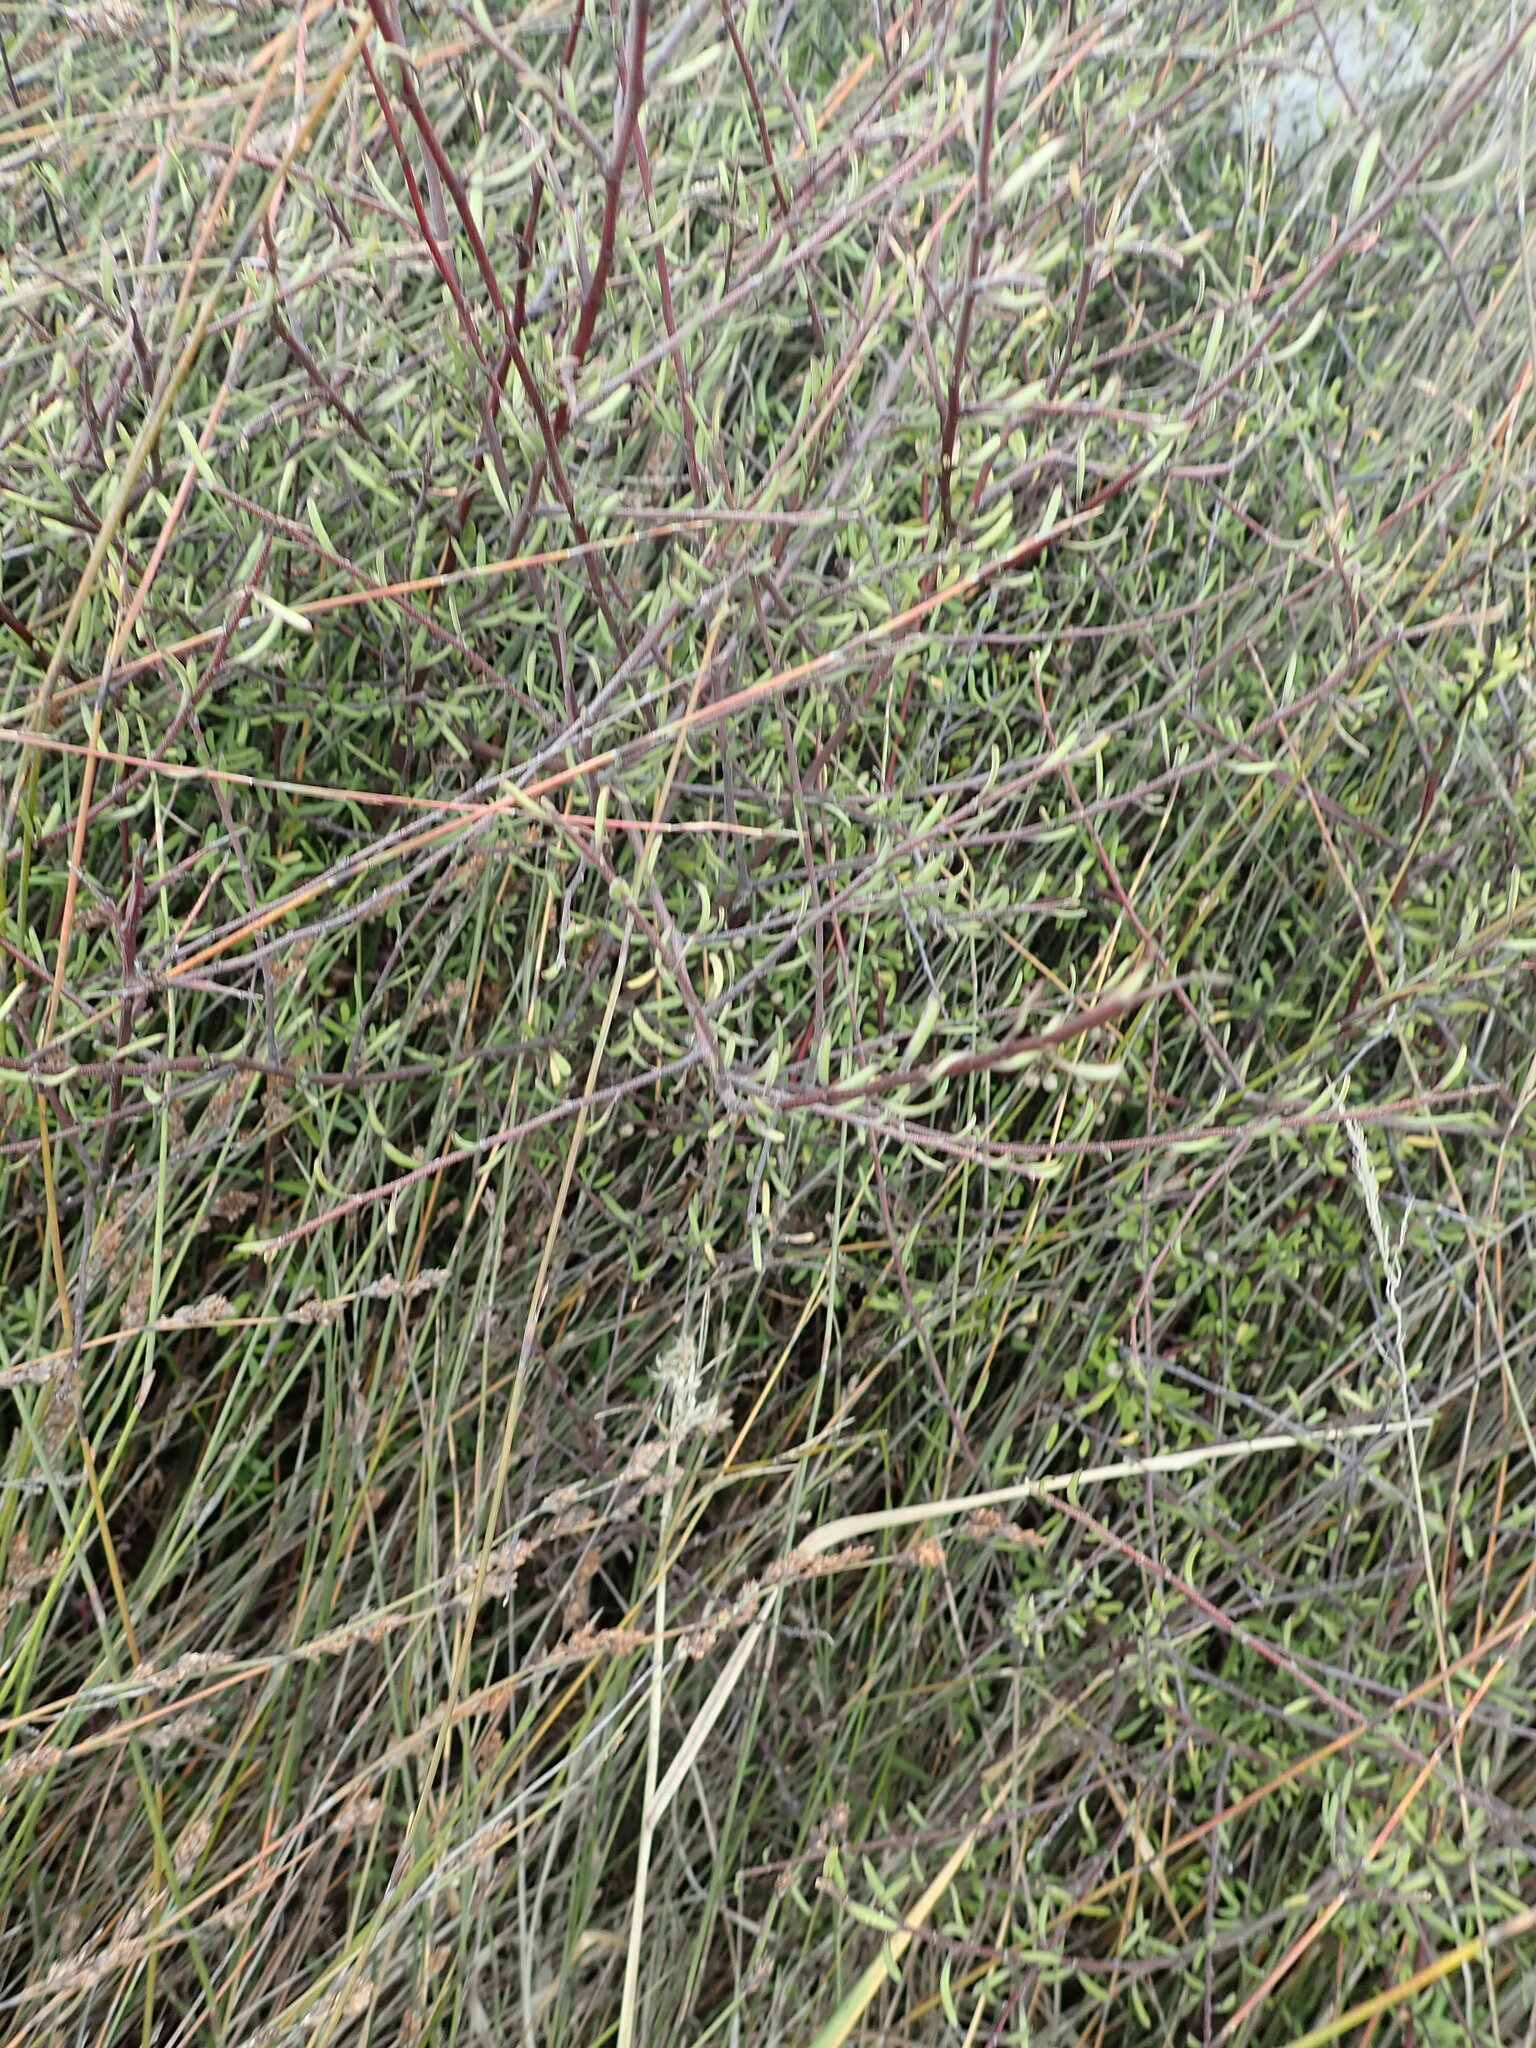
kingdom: Plantae
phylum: Tracheophyta
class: Magnoliopsida
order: Malvales
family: Malvaceae
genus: Plagianthus
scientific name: Plagianthus divaricatus
